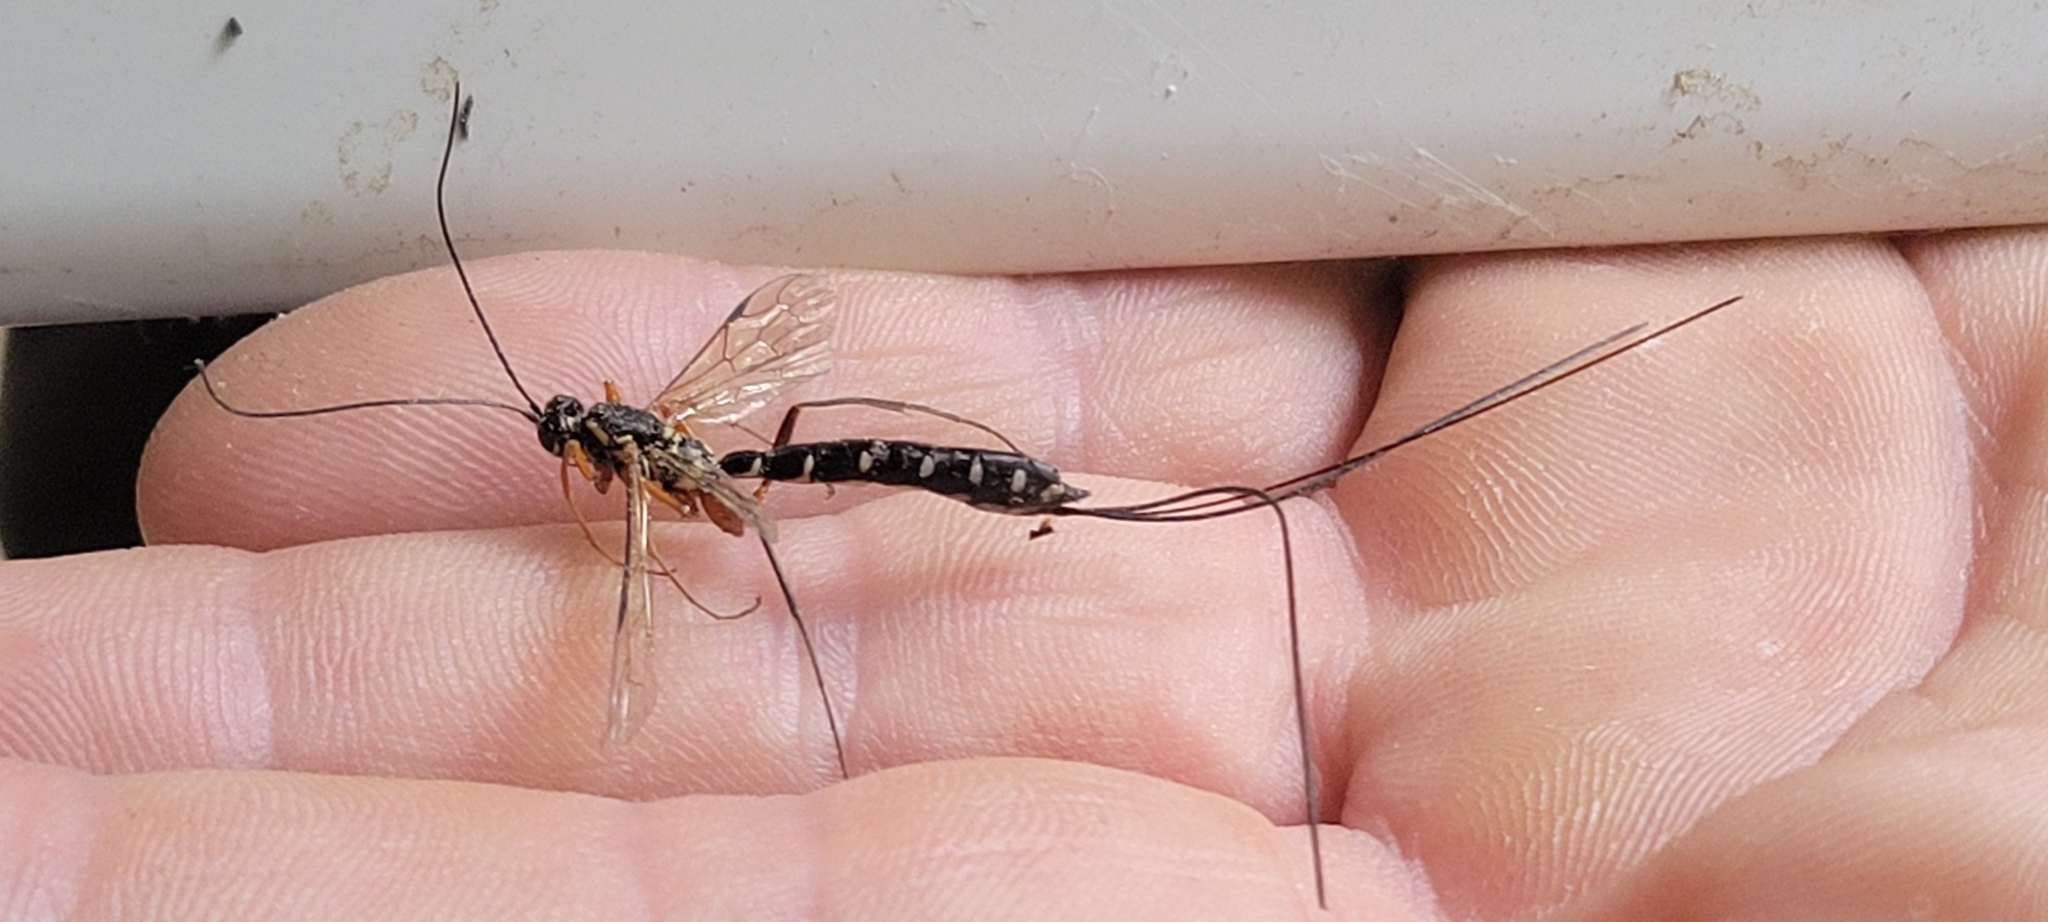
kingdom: Animalia
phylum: Arthropoda
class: Insecta
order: Hymenoptera
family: Ichneumonidae
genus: Rhyssa
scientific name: Rhyssa persuasoria
